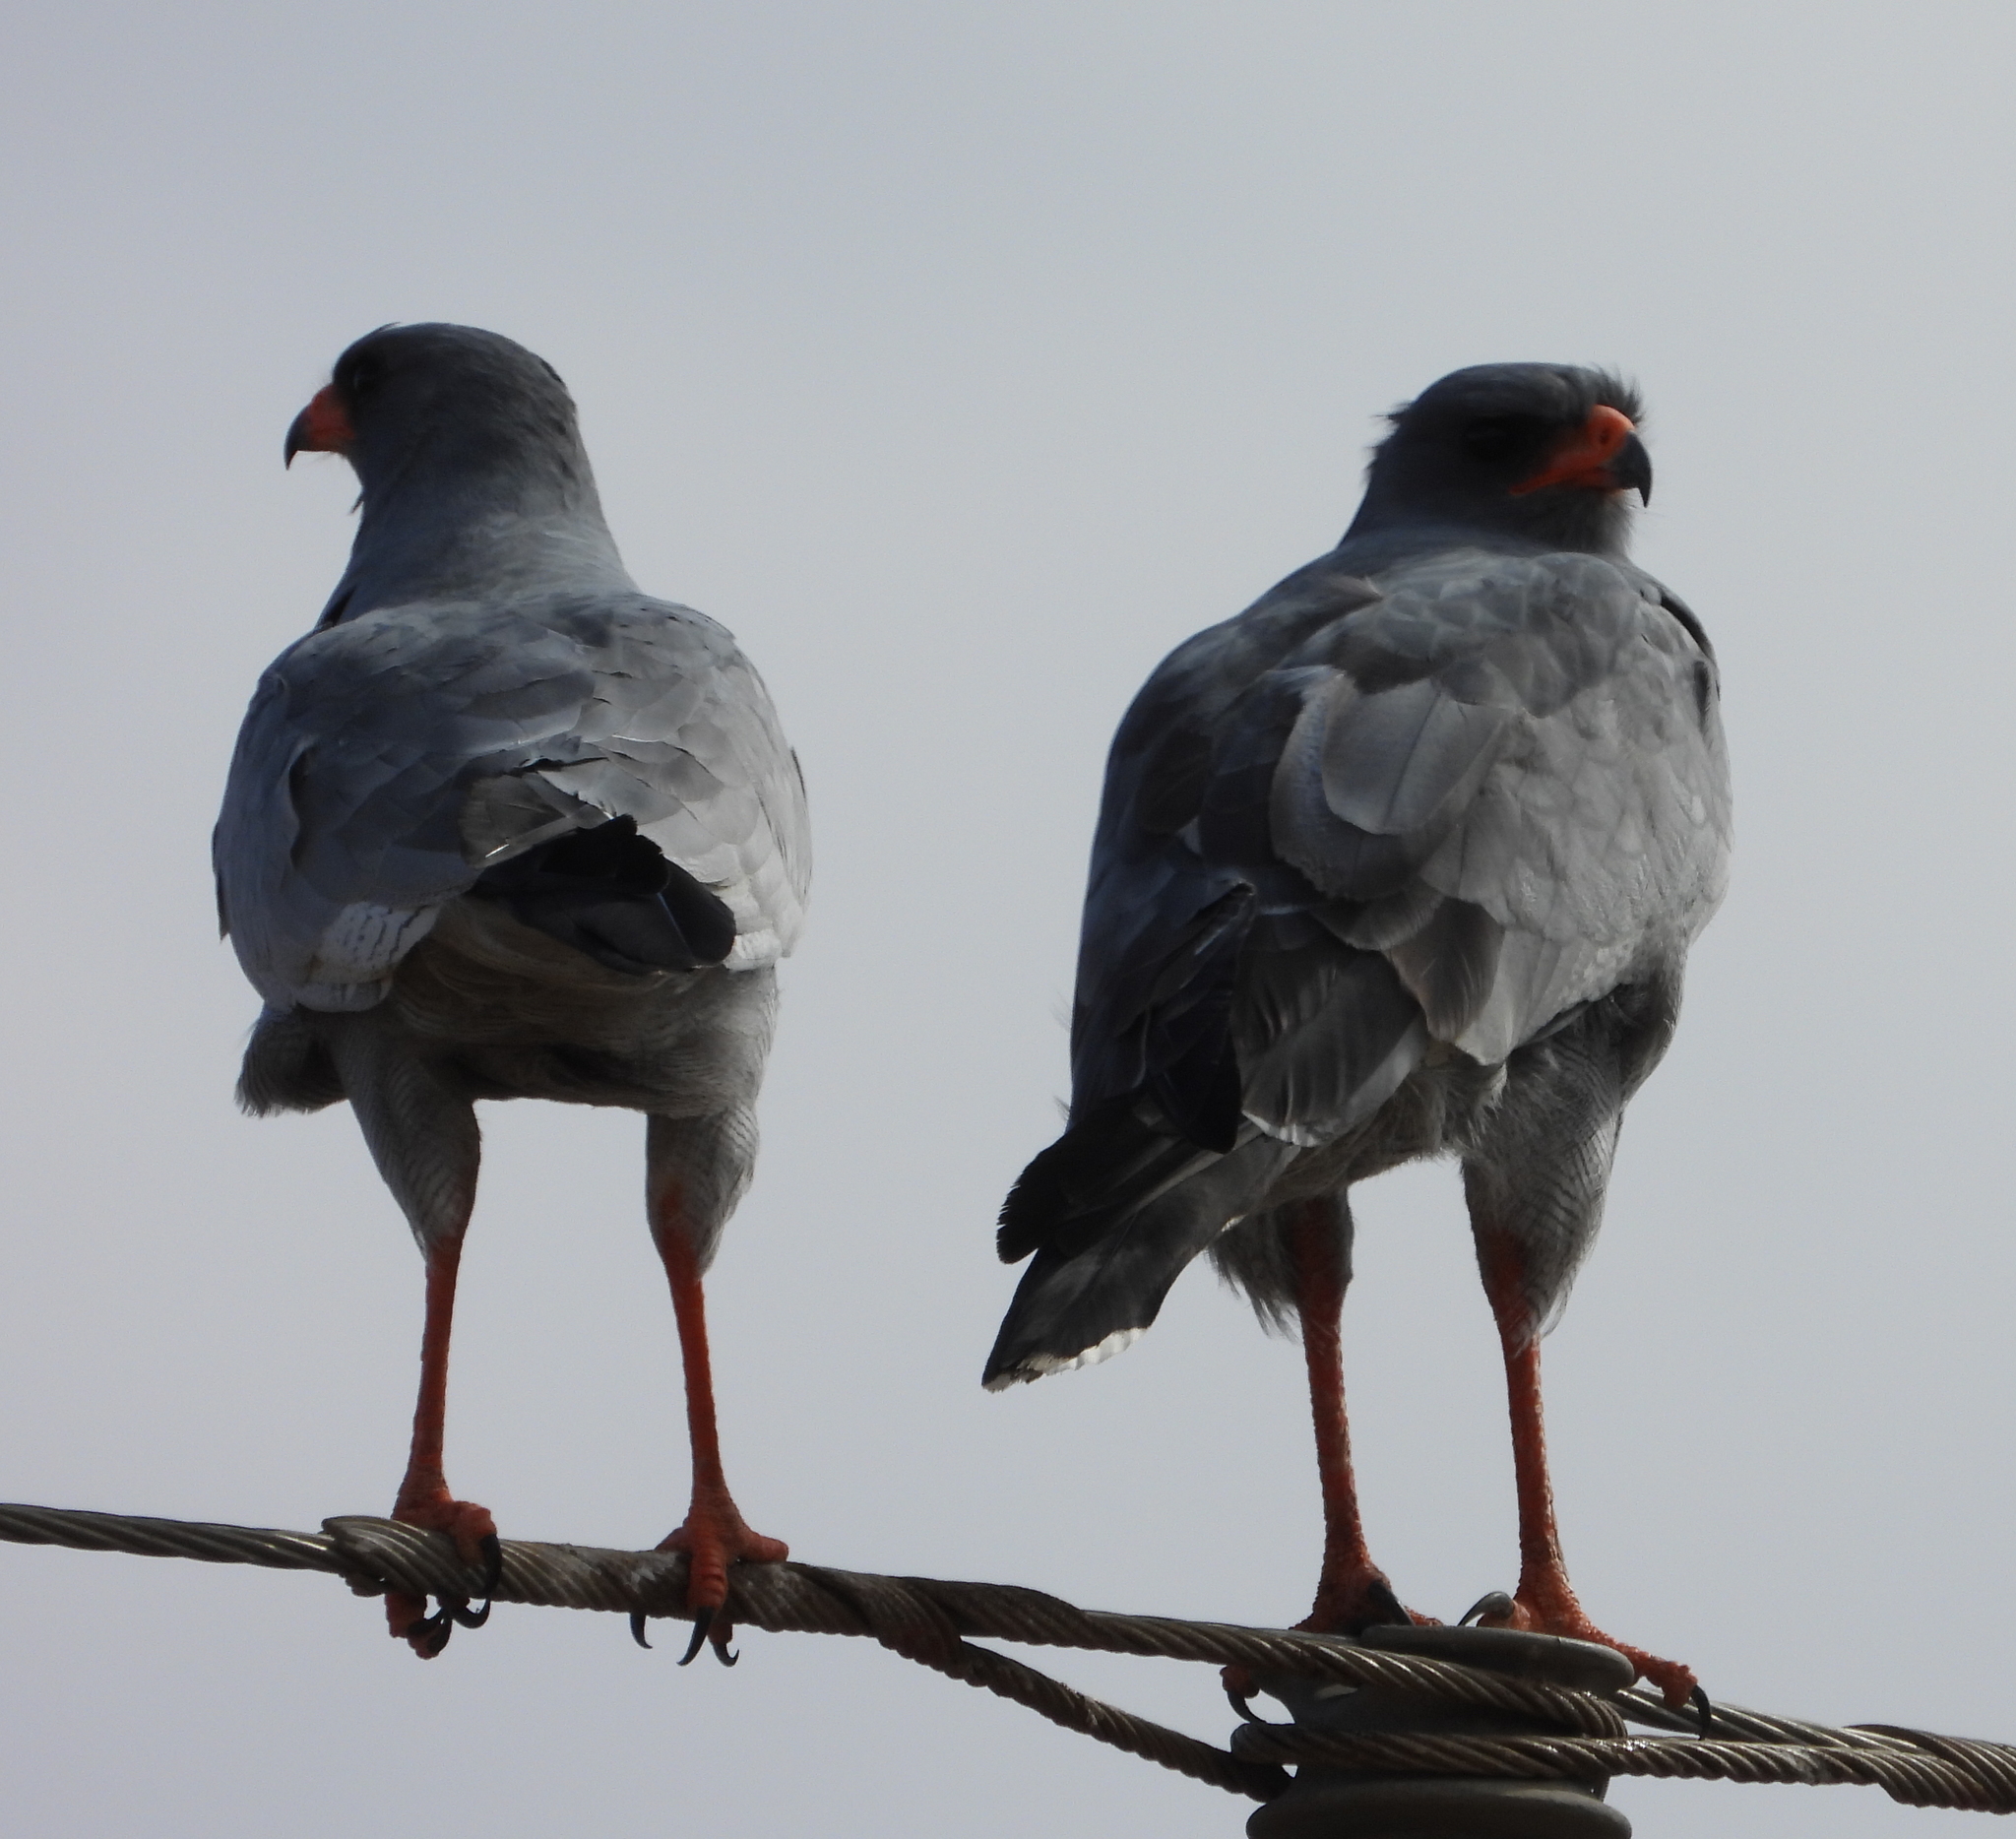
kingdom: Animalia
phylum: Chordata
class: Aves
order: Accipitriformes
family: Accipitridae
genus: Melierax
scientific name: Melierax canorus
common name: Pale chanting-goshawk
